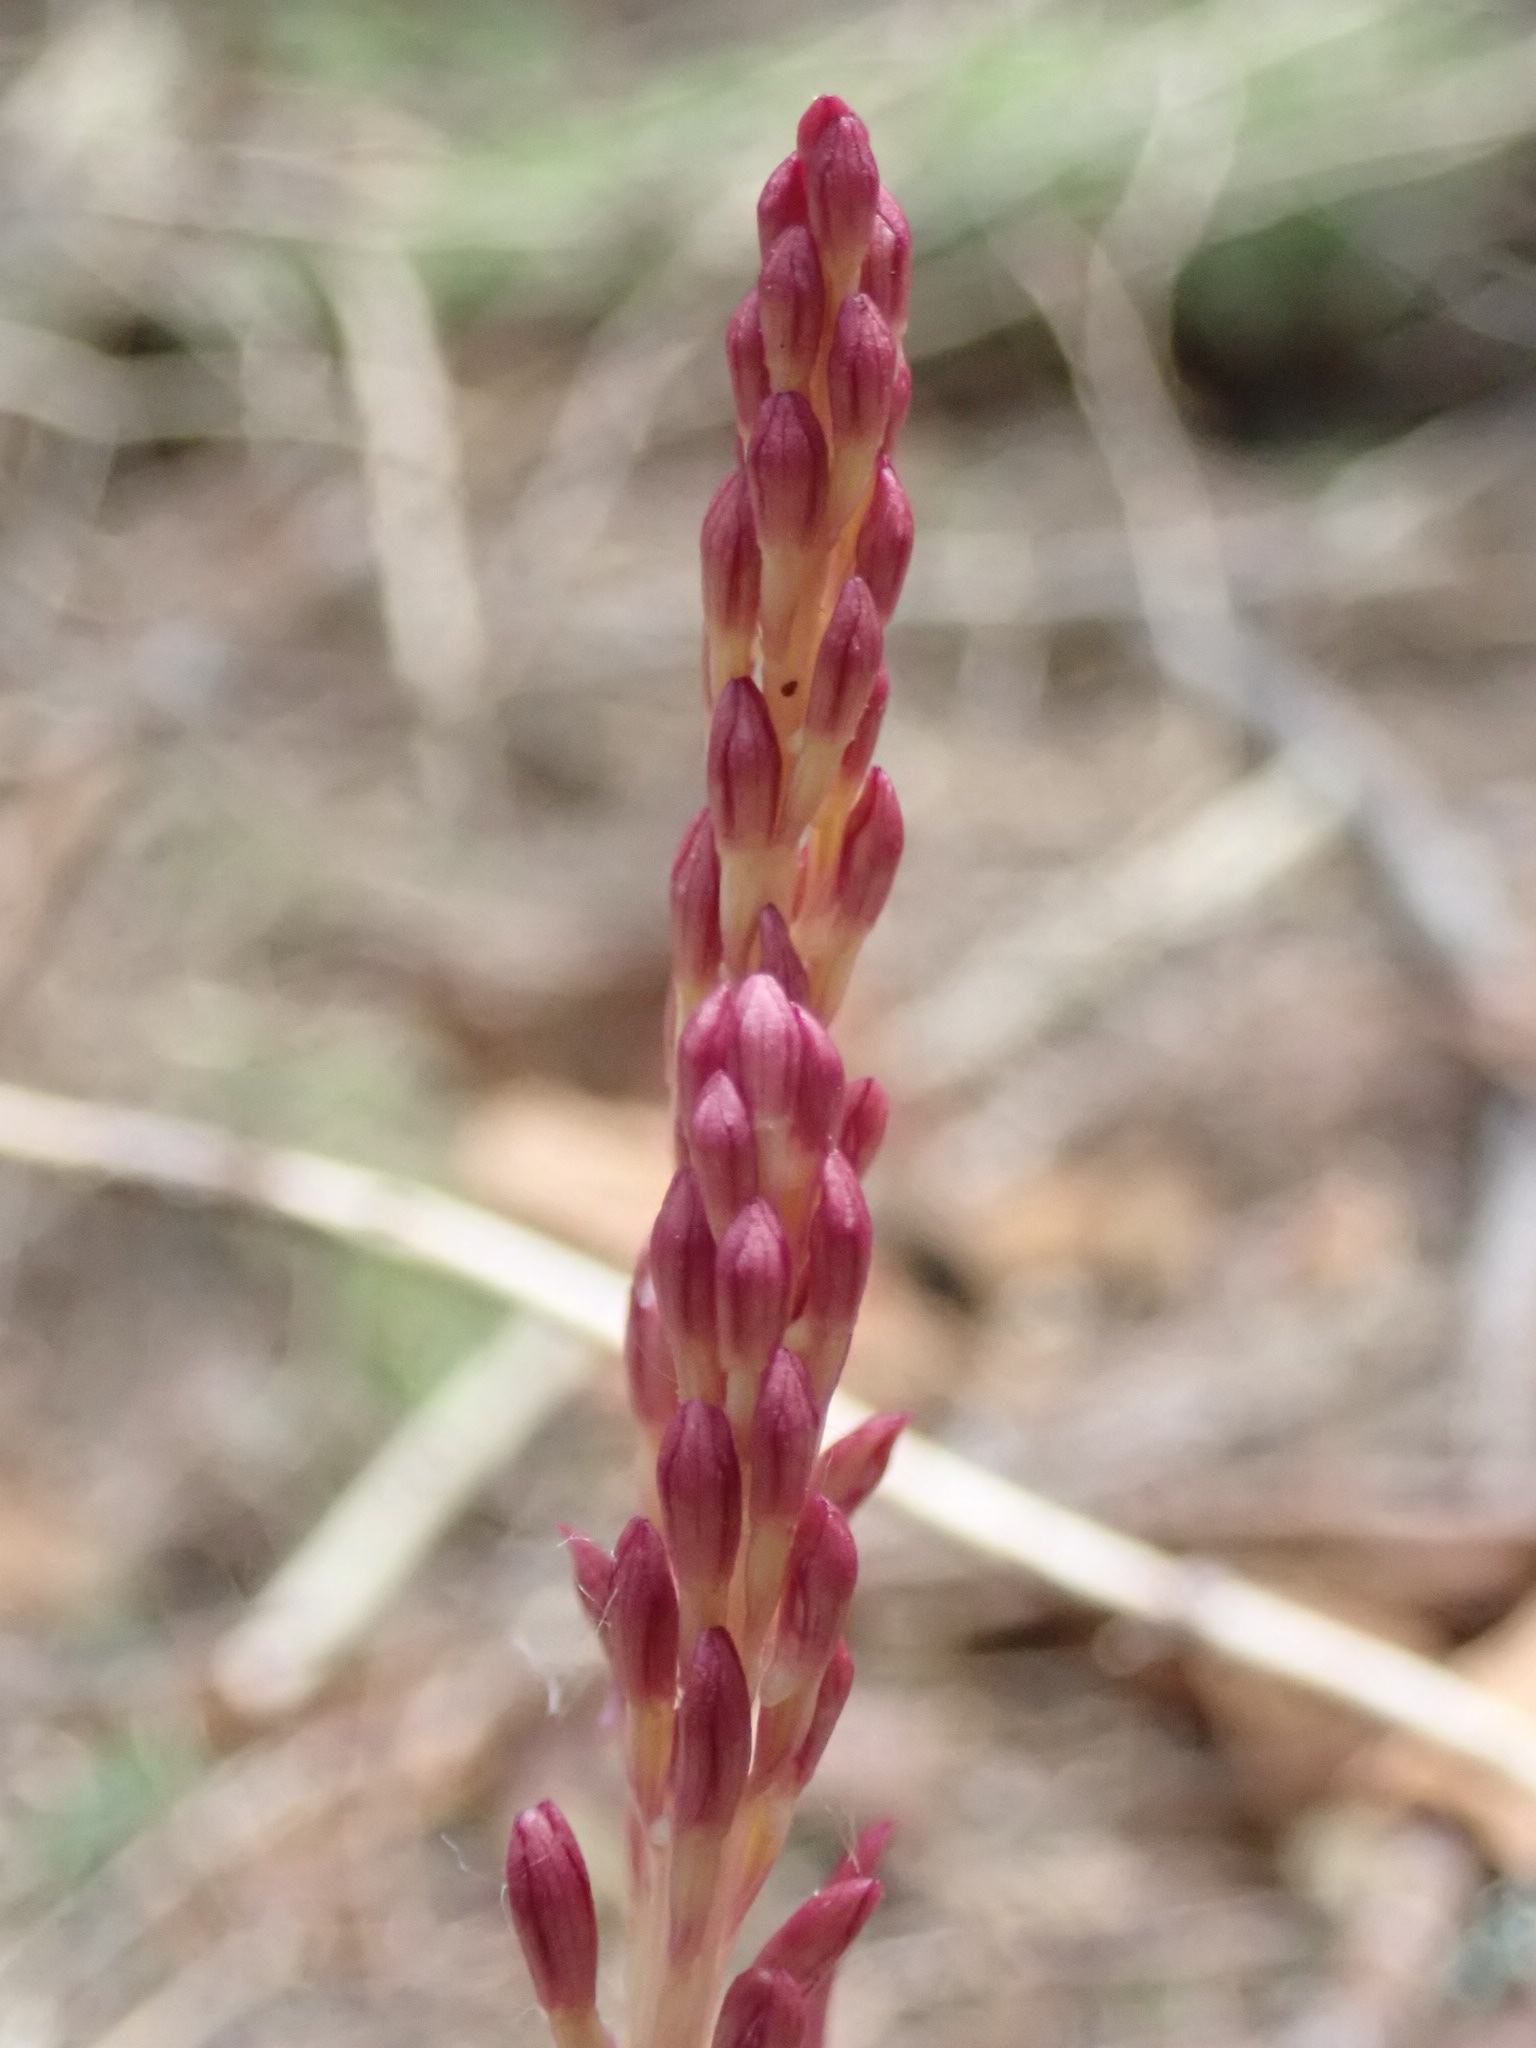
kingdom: Plantae
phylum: Tracheophyta
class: Liliopsida
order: Asparagales
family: Orchidaceae
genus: Corallorhiza
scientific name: Corallorhiza mertensiana
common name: Pacific coralroot
